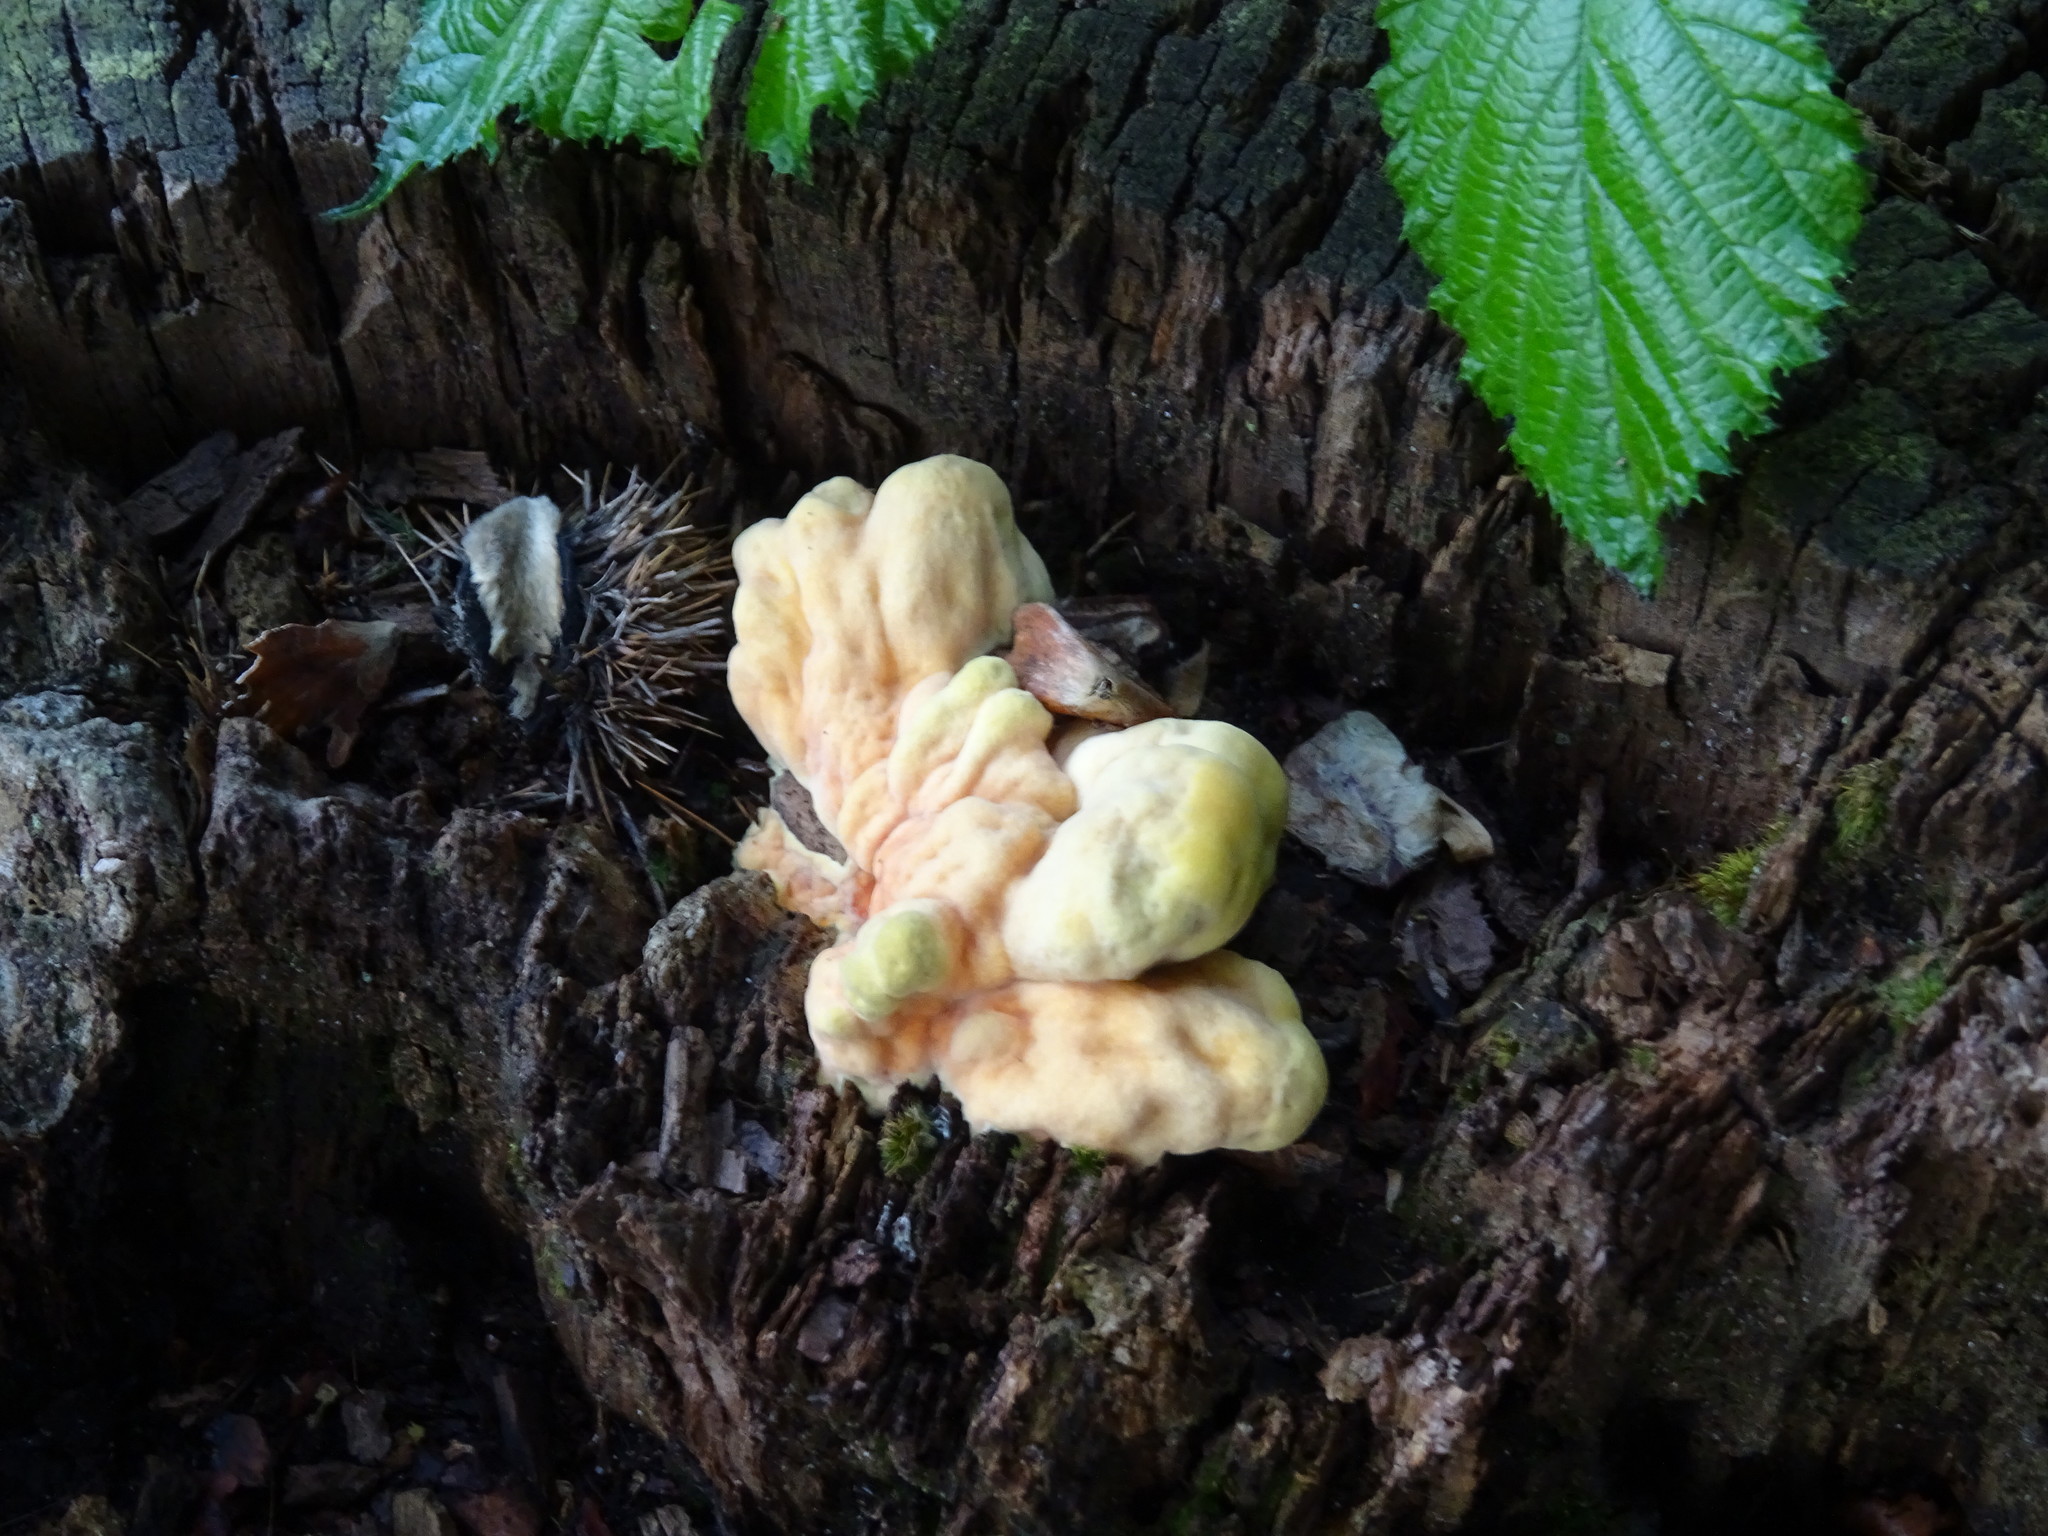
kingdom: Fungi
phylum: Basidiomycota
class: Agaricomycetes
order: Polyporales
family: Laetiporaceae
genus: Laetiporus
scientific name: Laetiporus sulphureus
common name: Chicken of the woods
